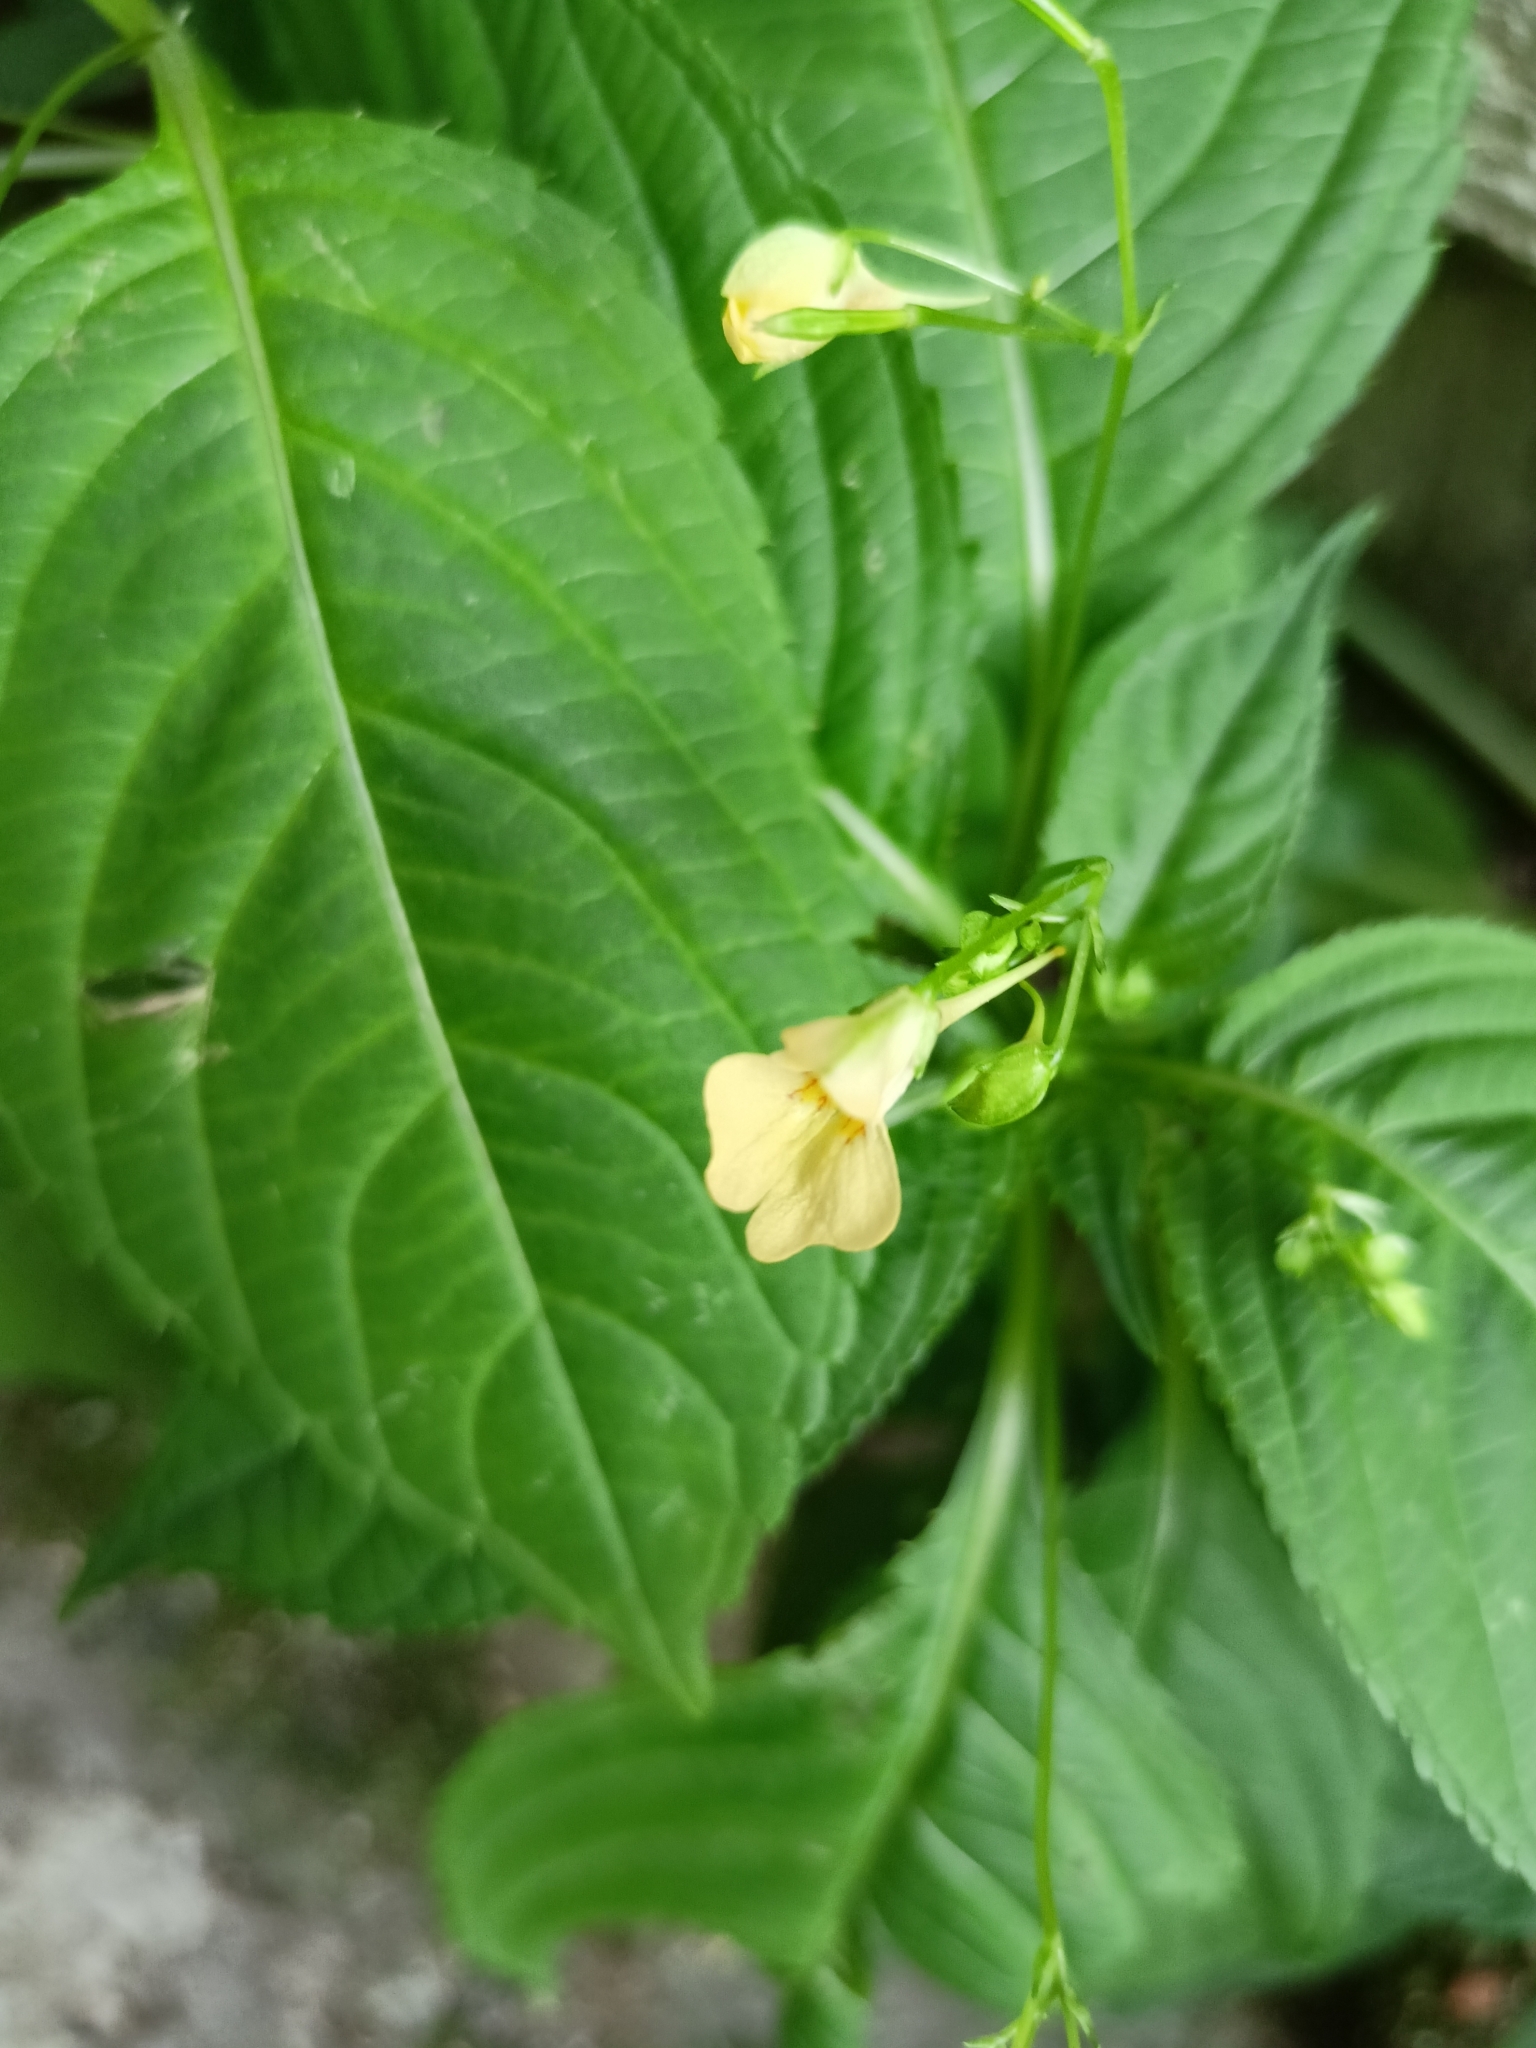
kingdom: Plantae
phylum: Tracheophyta
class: Magnoliopsida
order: Ericales
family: Balsaminaceae
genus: Impatiens
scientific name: Impatiens parviflora
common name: Small balsam
